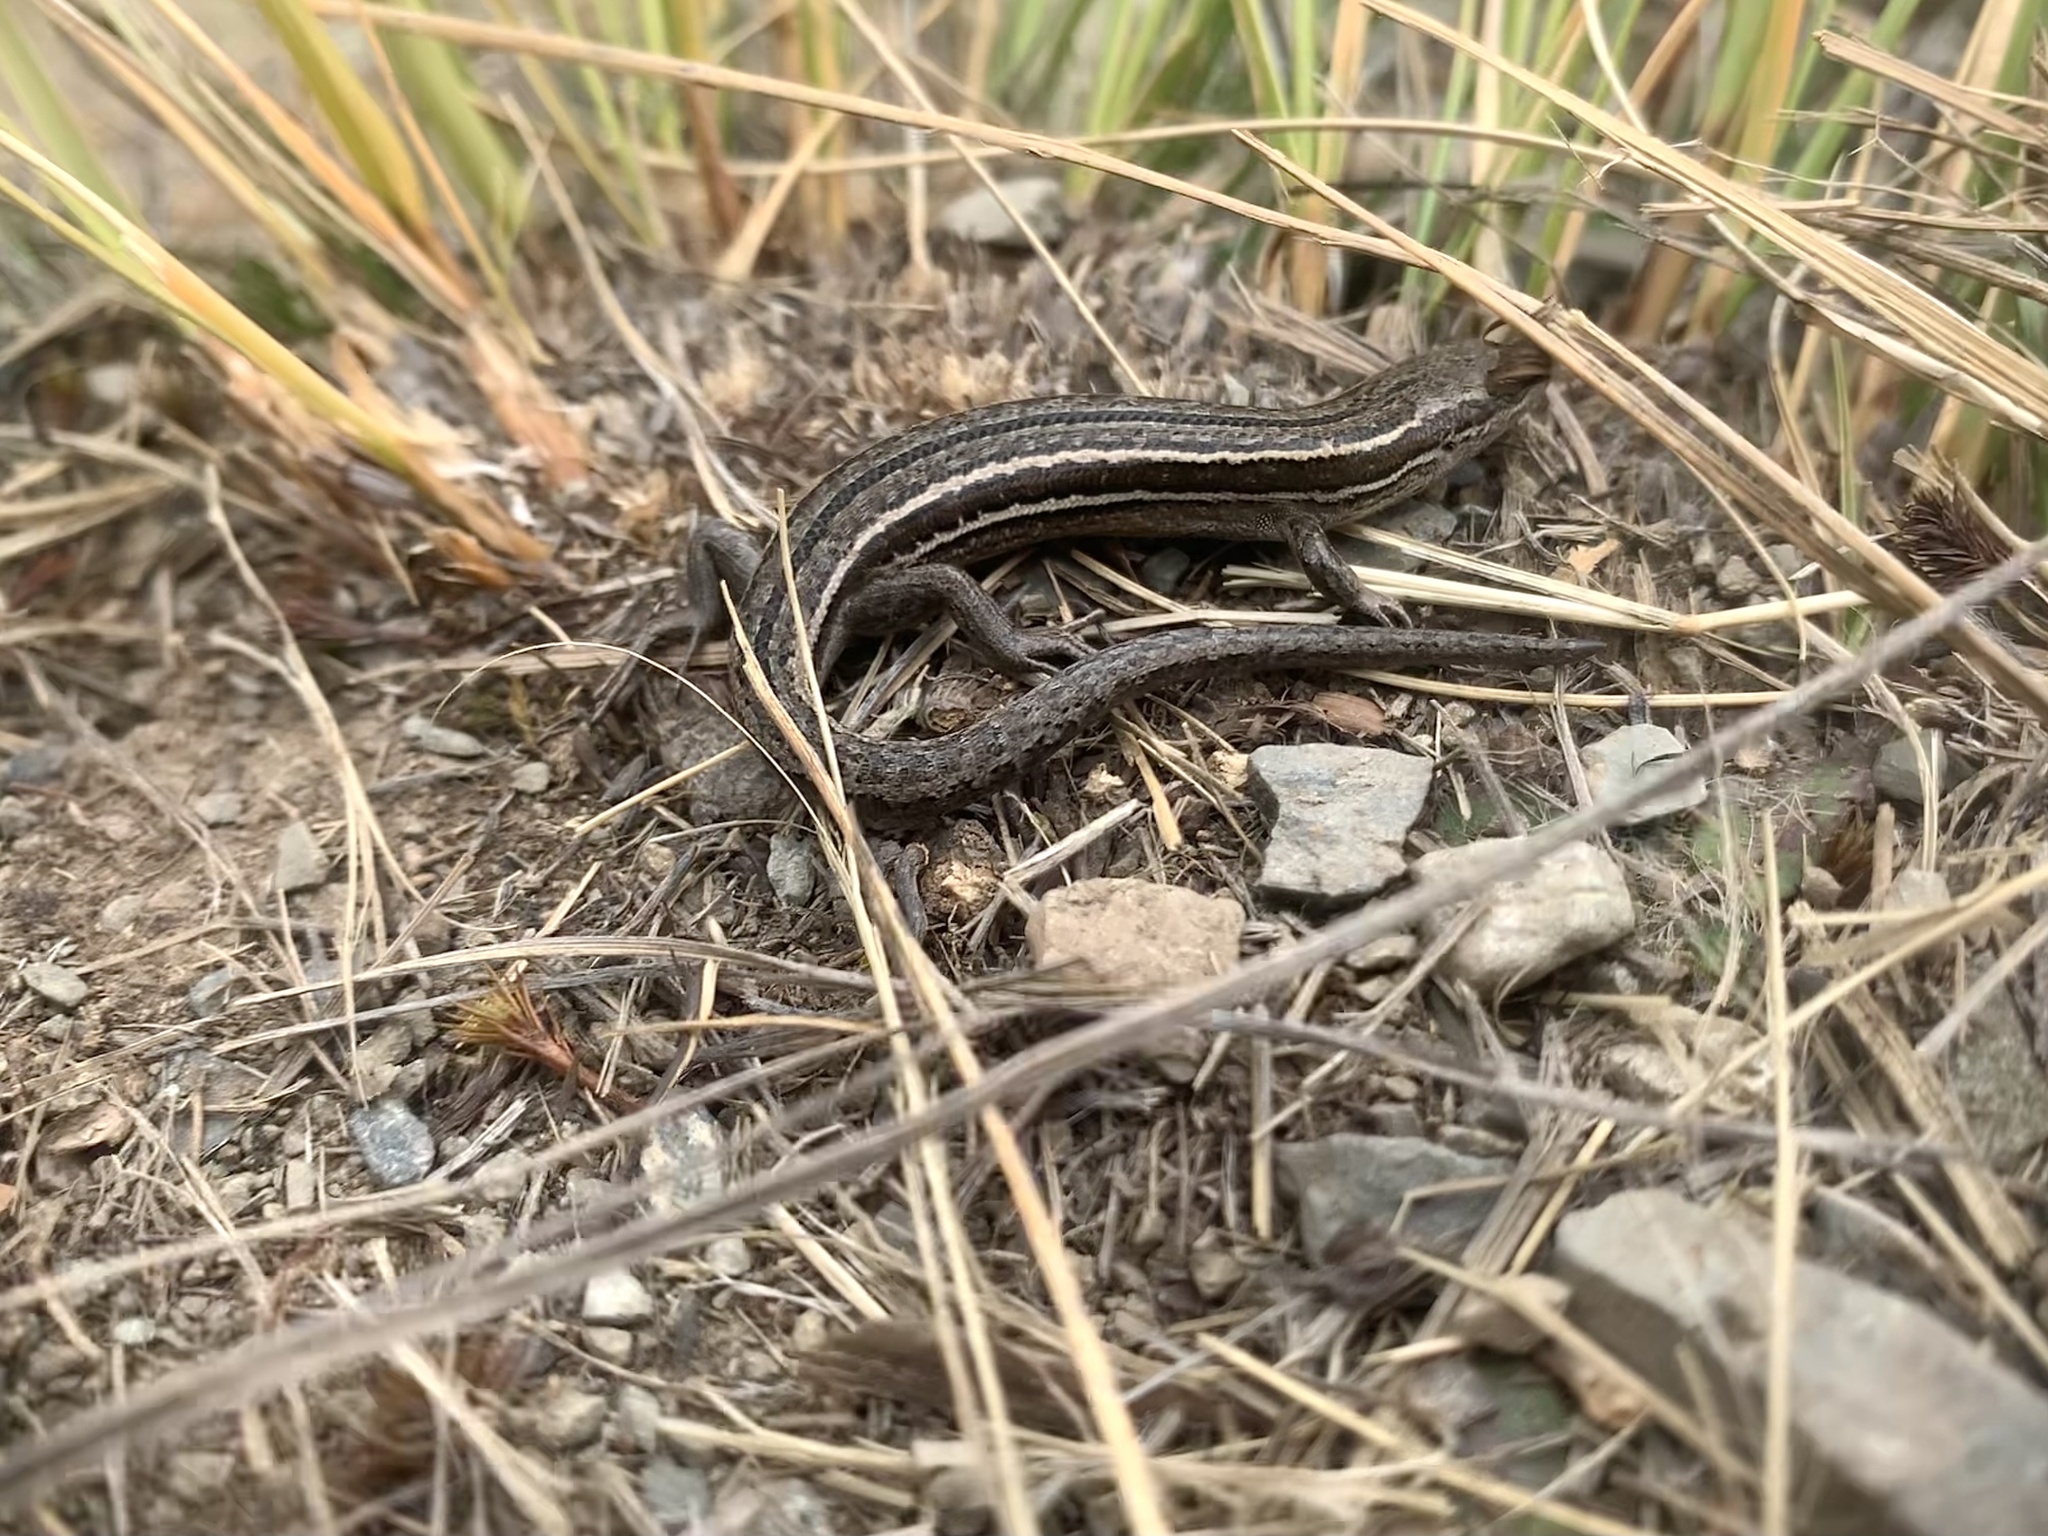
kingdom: Animalia
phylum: Chordata
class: Squamata
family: Scincidae
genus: Oligosoma
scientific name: Oligosoma maccanni
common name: Mccann’s skink
